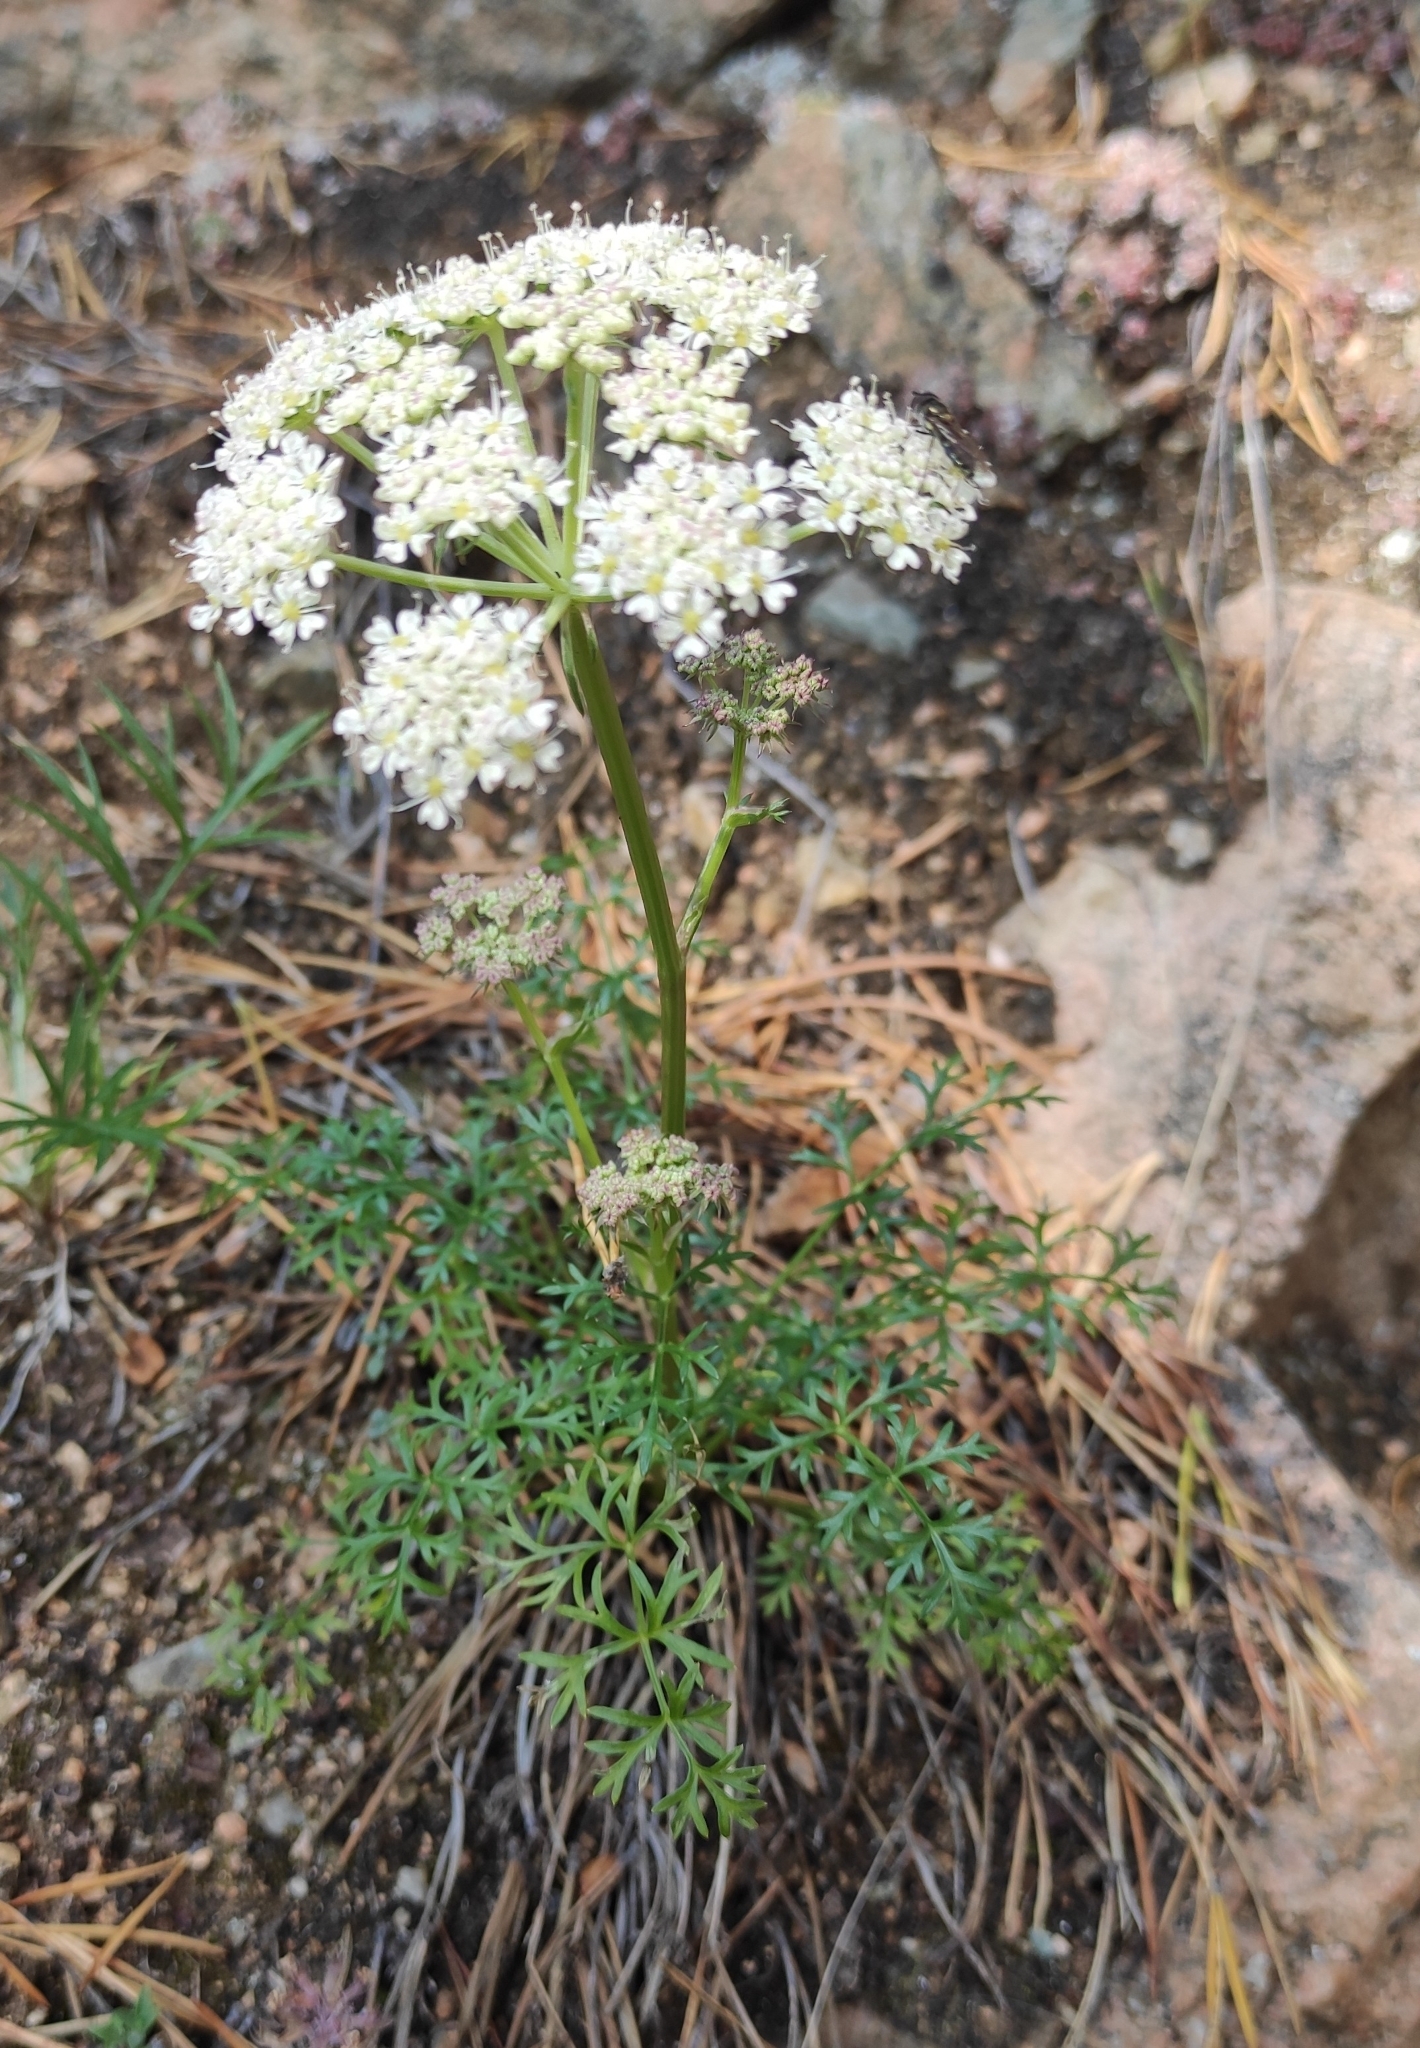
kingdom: Plantae
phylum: Tracheophyta
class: Magnoliopsida
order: Apiales
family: Apiaceae
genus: Kitagawia
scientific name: Kitagawia baicalensis
